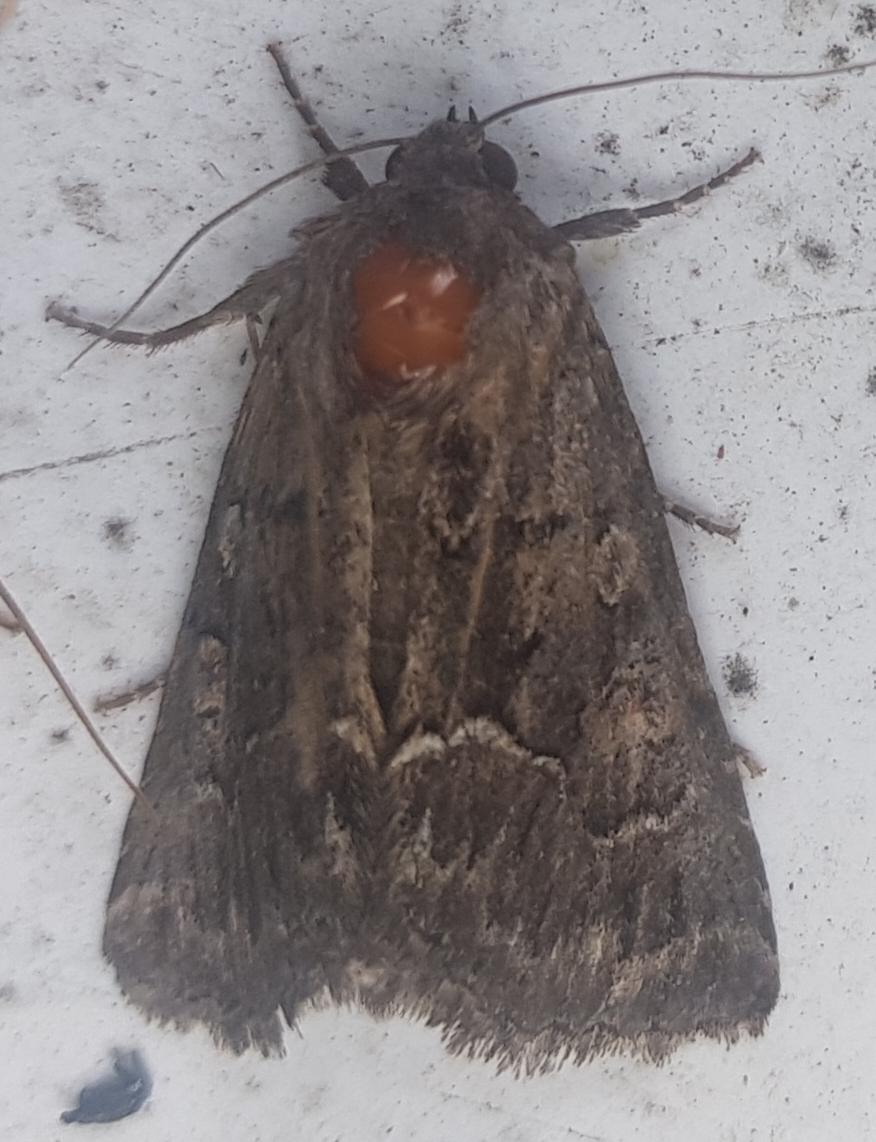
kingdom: Animalia
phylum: Arthropoda
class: Insecta
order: Lepidoptera
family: Noctuidae
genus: Thalpophila
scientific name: Thalpophila matura
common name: Straw underwing
